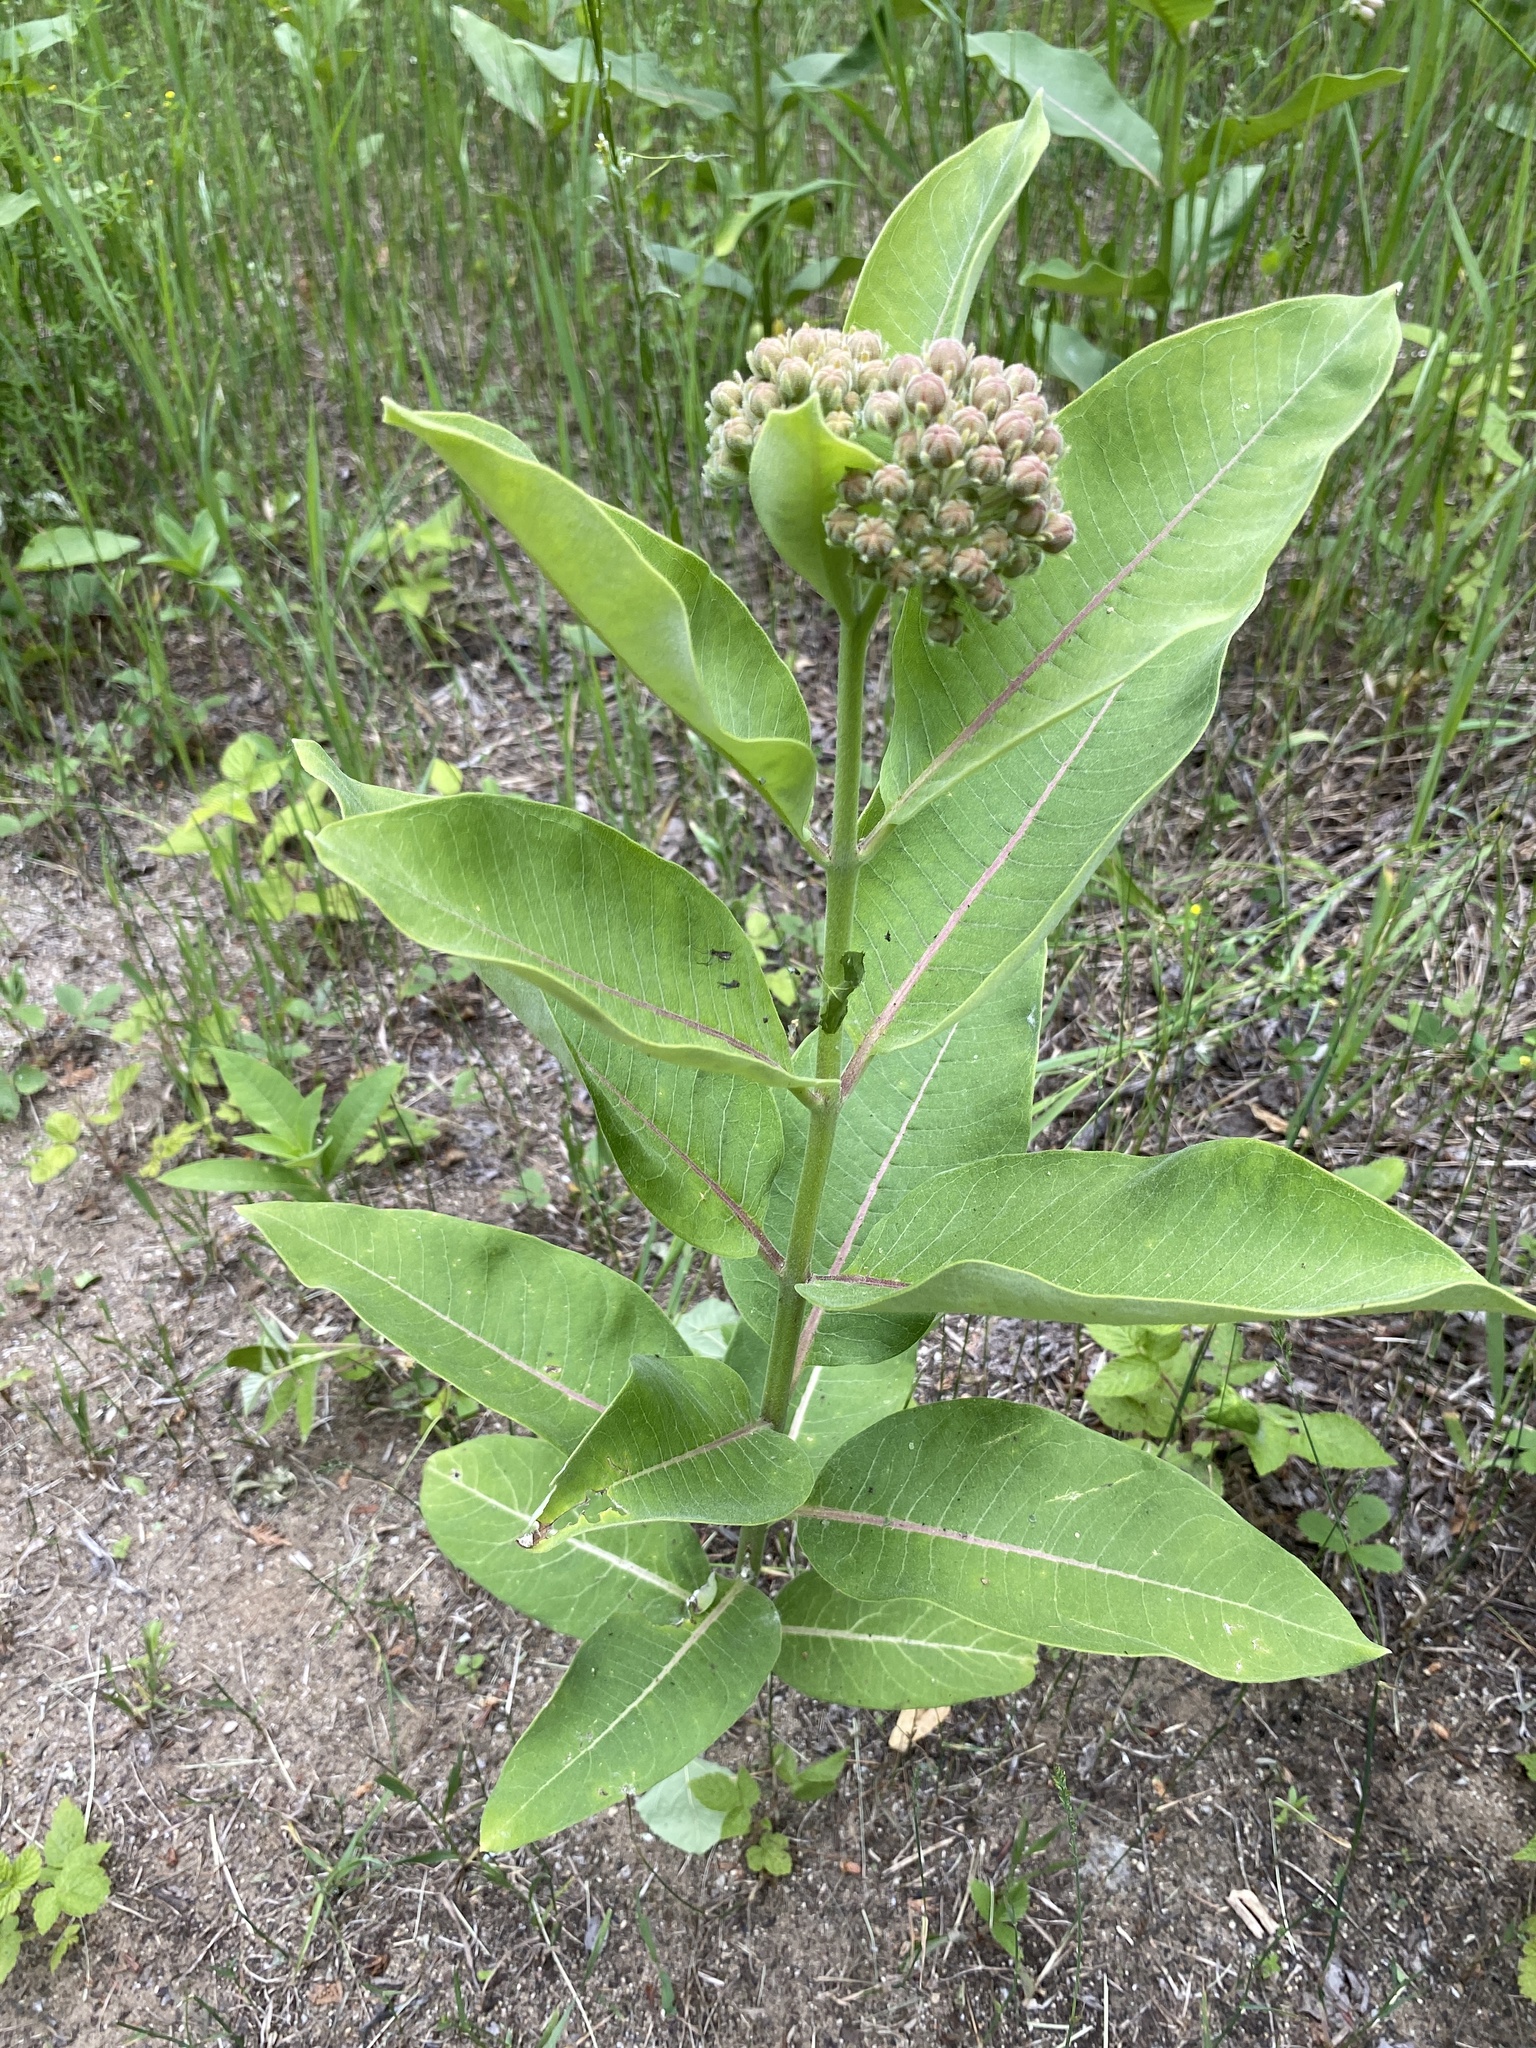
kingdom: Plantae
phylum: Tracheophyta
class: Magnoliopsida
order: Gentianales
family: Apocynaceae
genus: Asclepias
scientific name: Asclepias syriaca
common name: Common milkweed
